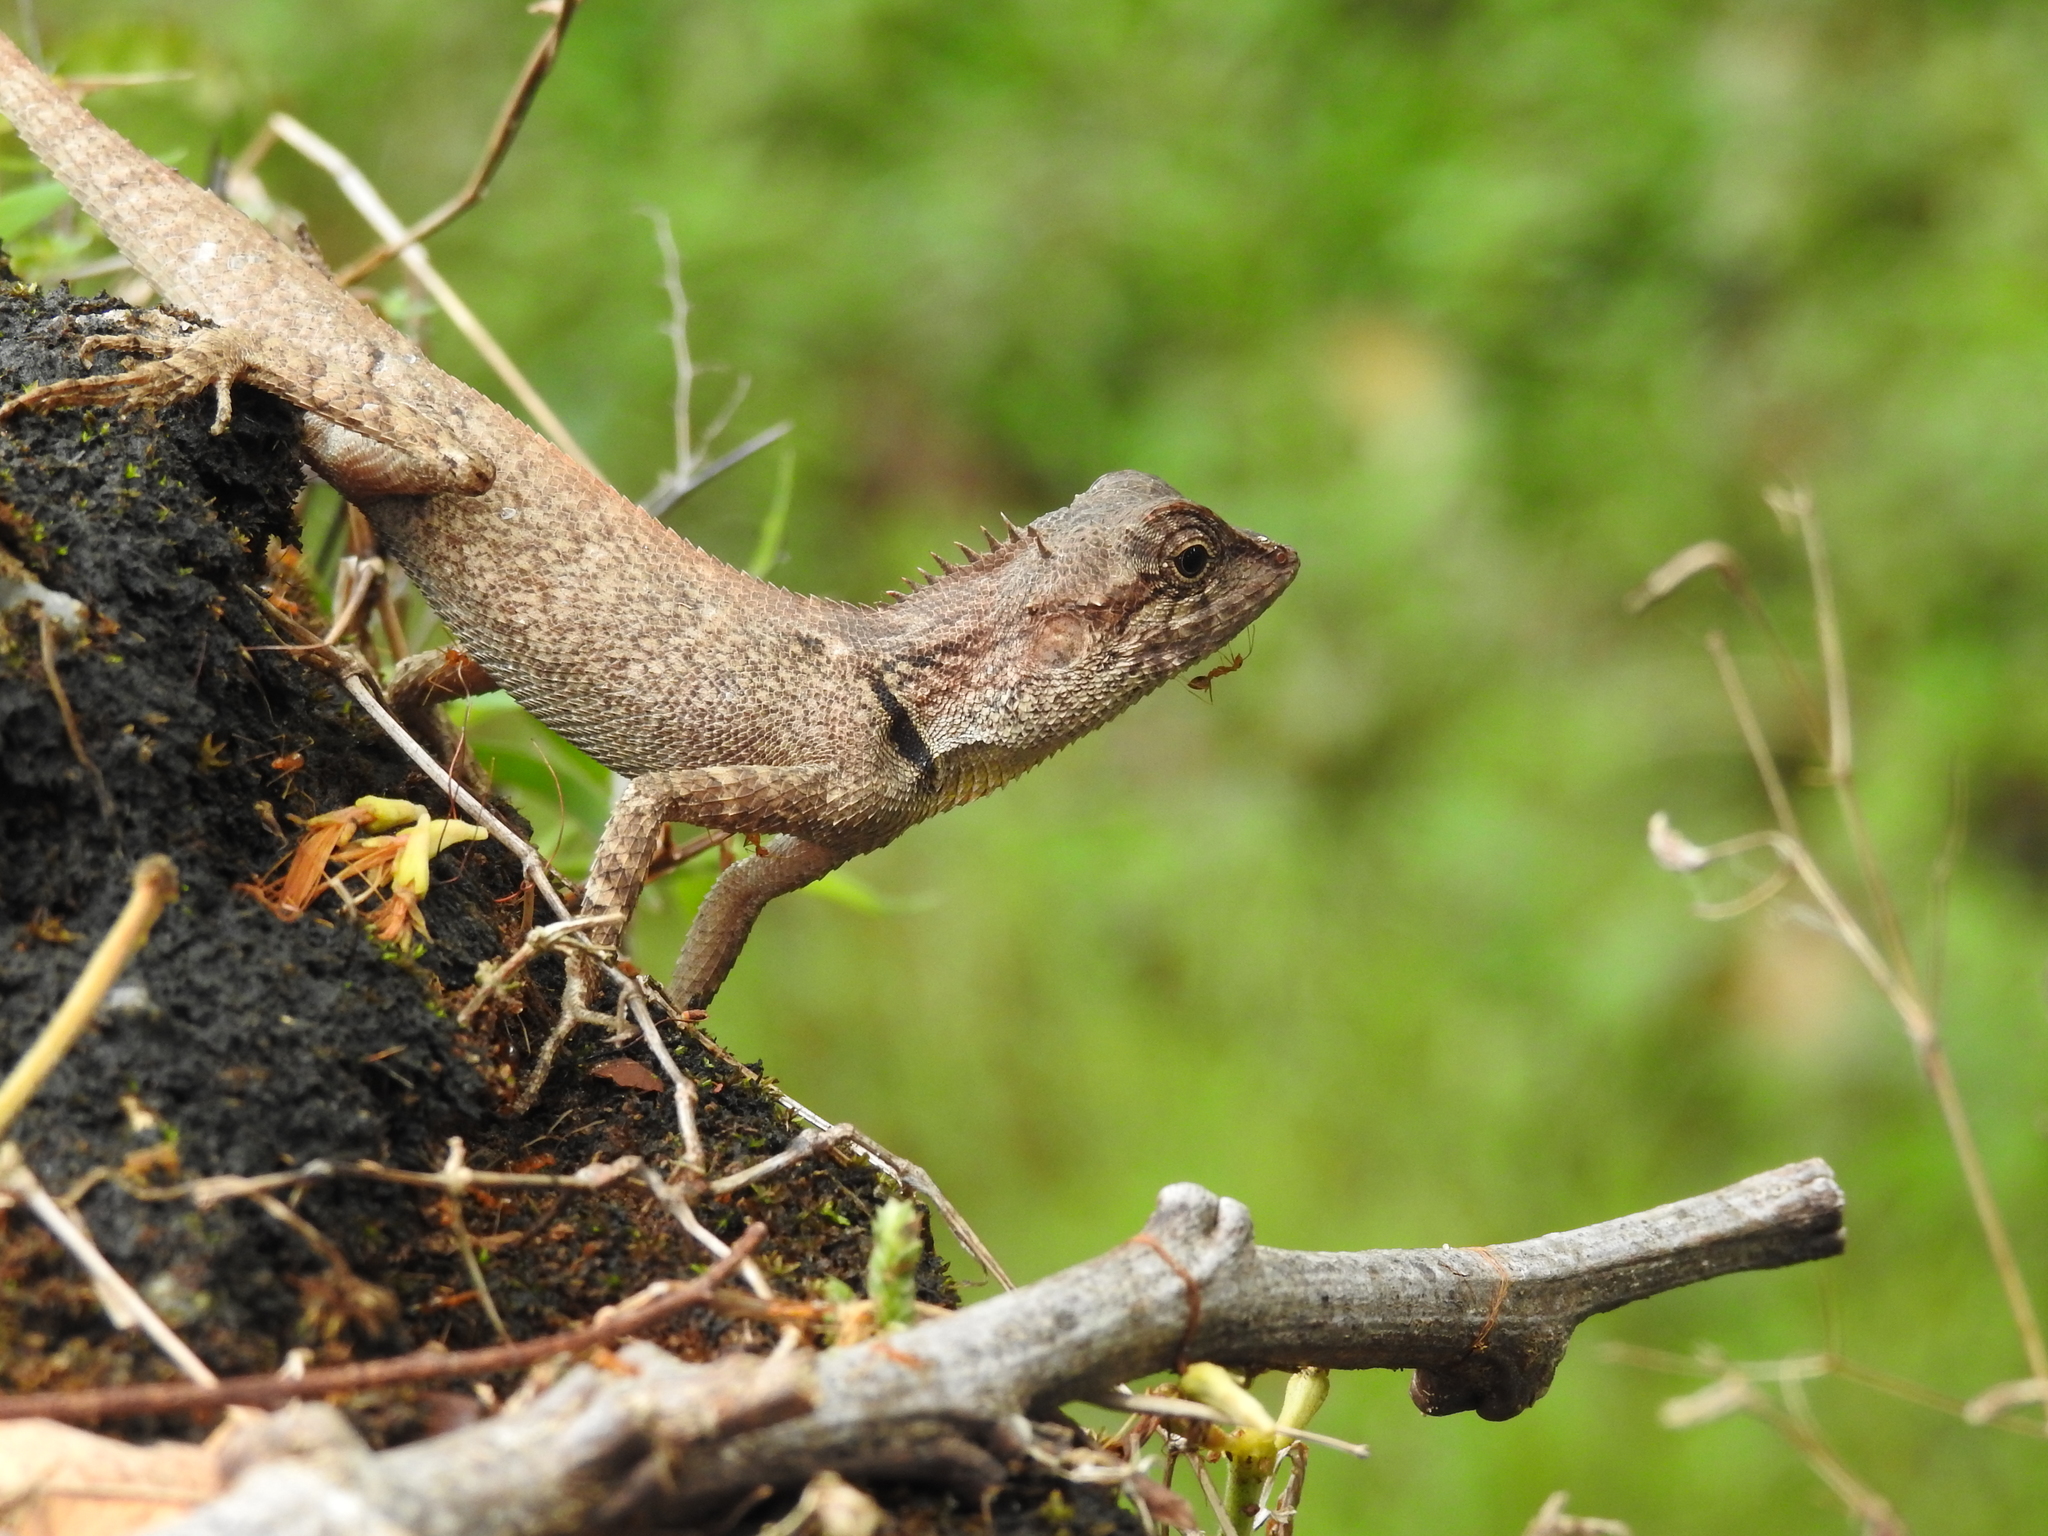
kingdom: Animalia
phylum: Chordata
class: Squamata
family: Agamidae
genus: Monilesaurus
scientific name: Monilesaurus rouxii
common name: Roux's forest lizard
